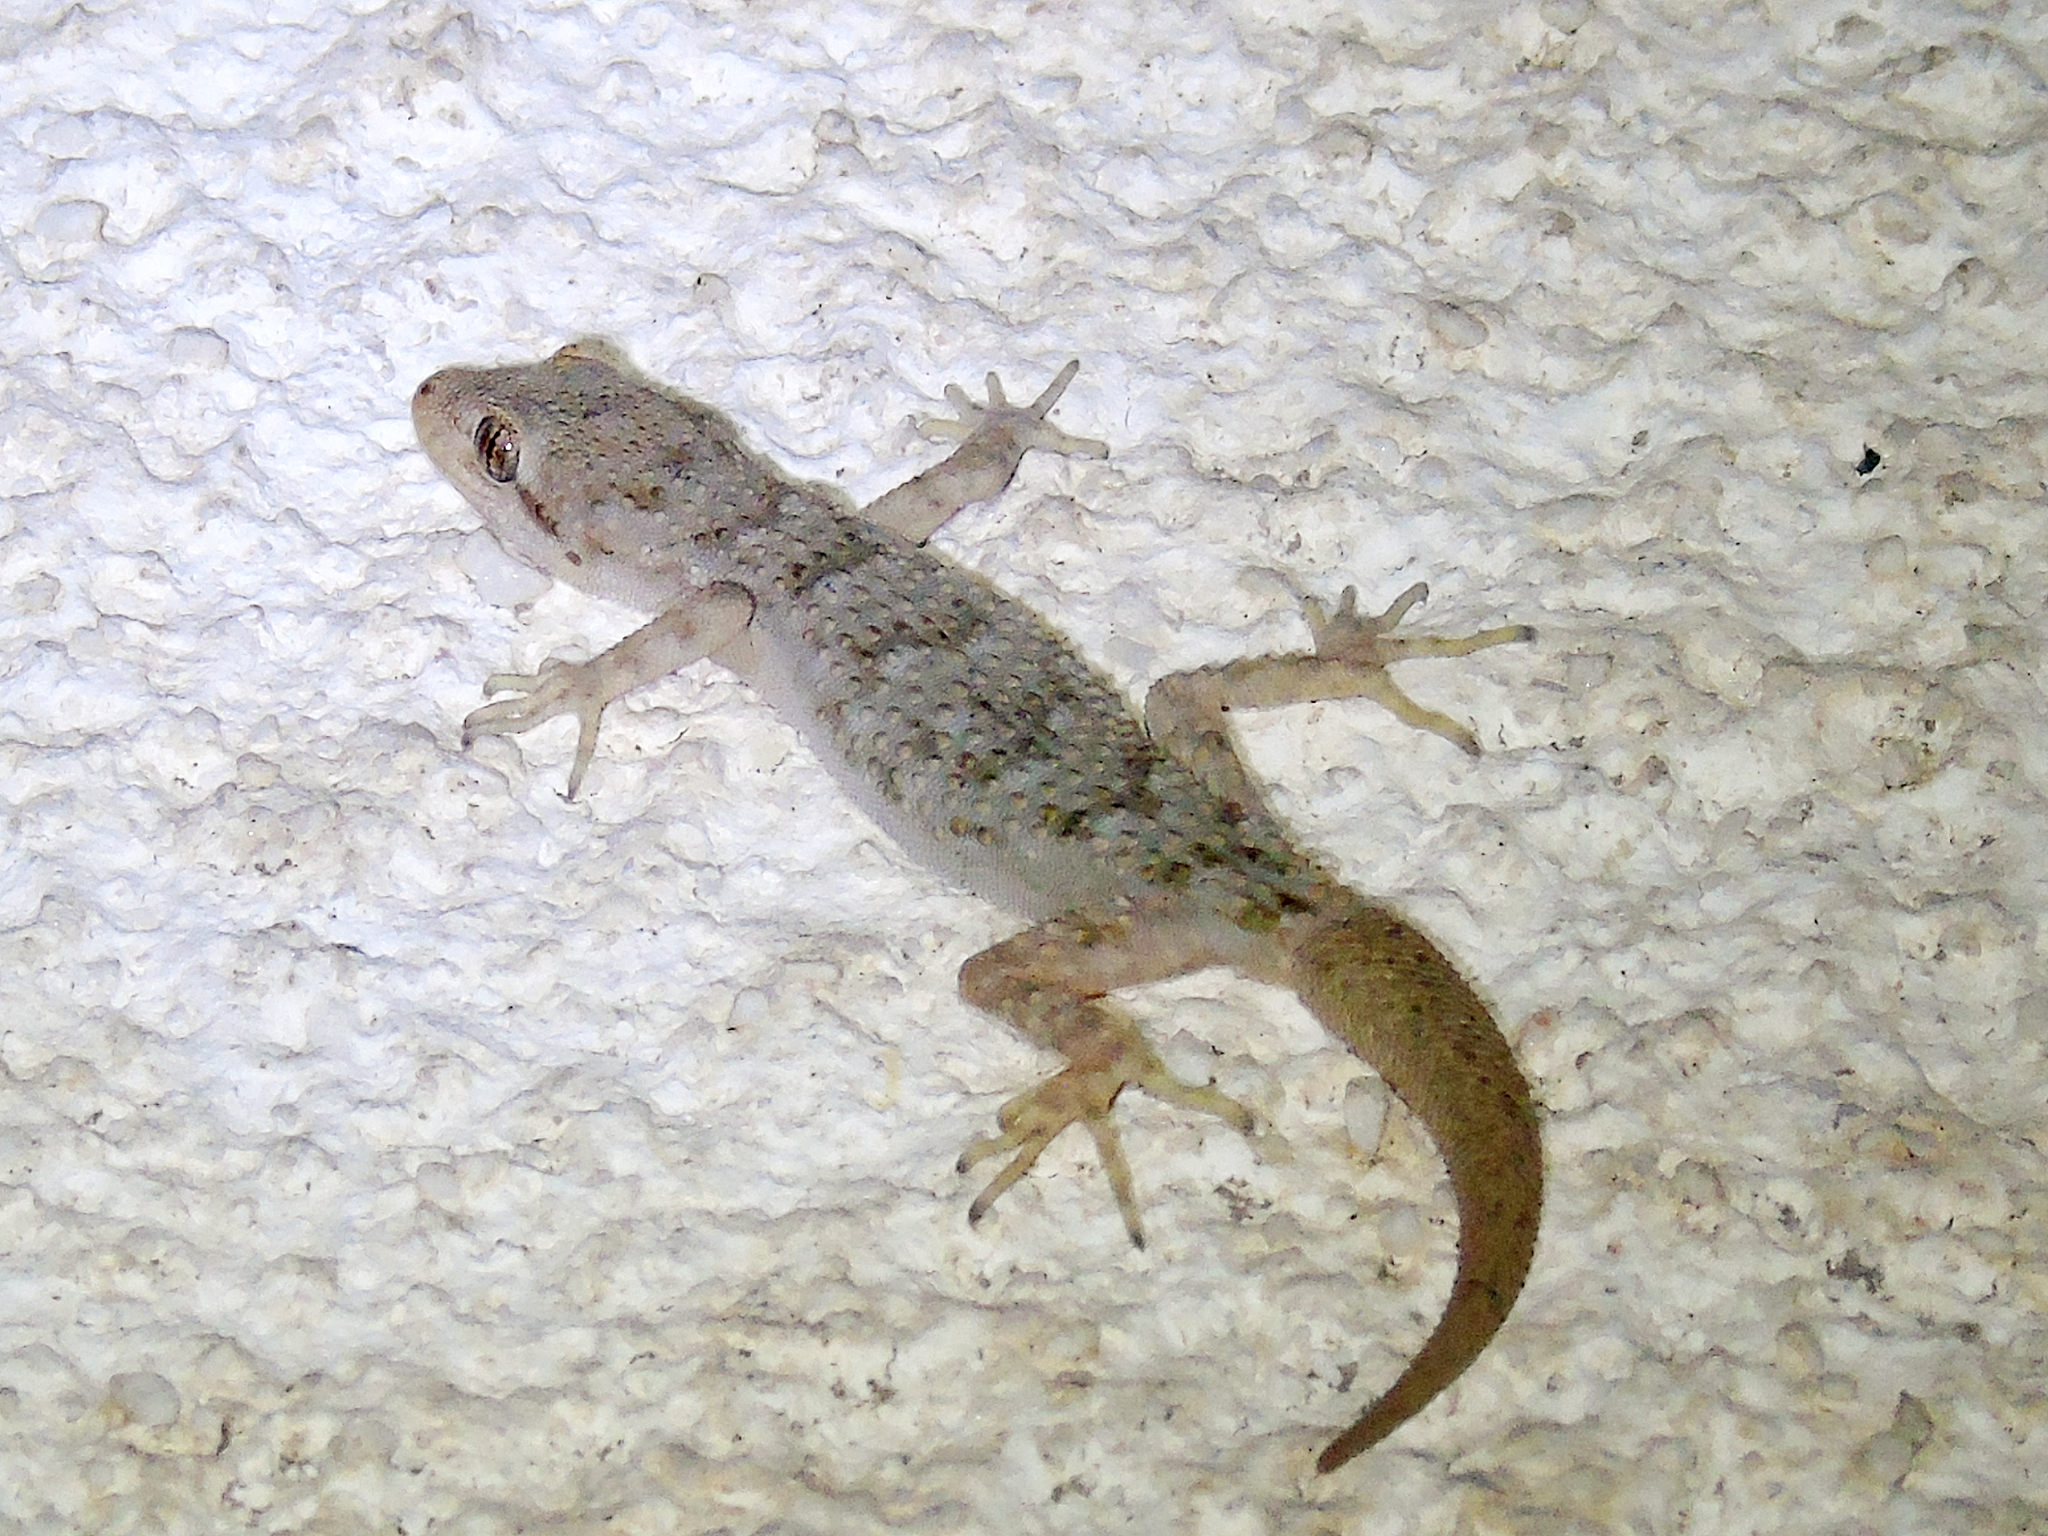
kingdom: Animalia
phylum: Chordata
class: Squamata
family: Gekkonidae
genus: Mediodactylus
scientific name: Mediodactylus kotschyi
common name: Kotschy's gecko
